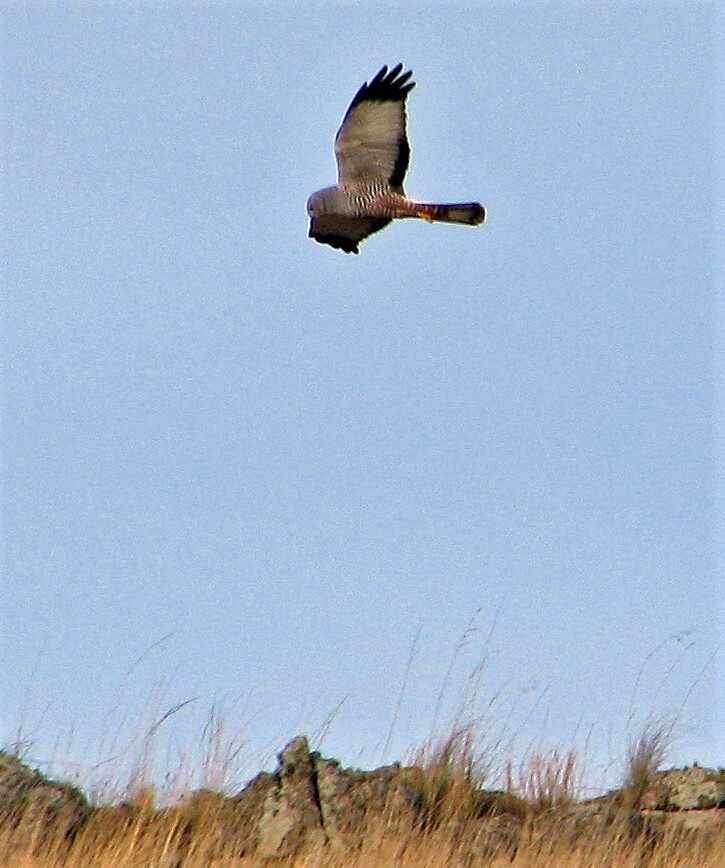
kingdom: Animalia
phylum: Chordata
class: Aves
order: Accipitriformes
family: Accipitridae
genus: Circus
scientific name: Circus cinereus
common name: Cinereous harrier
